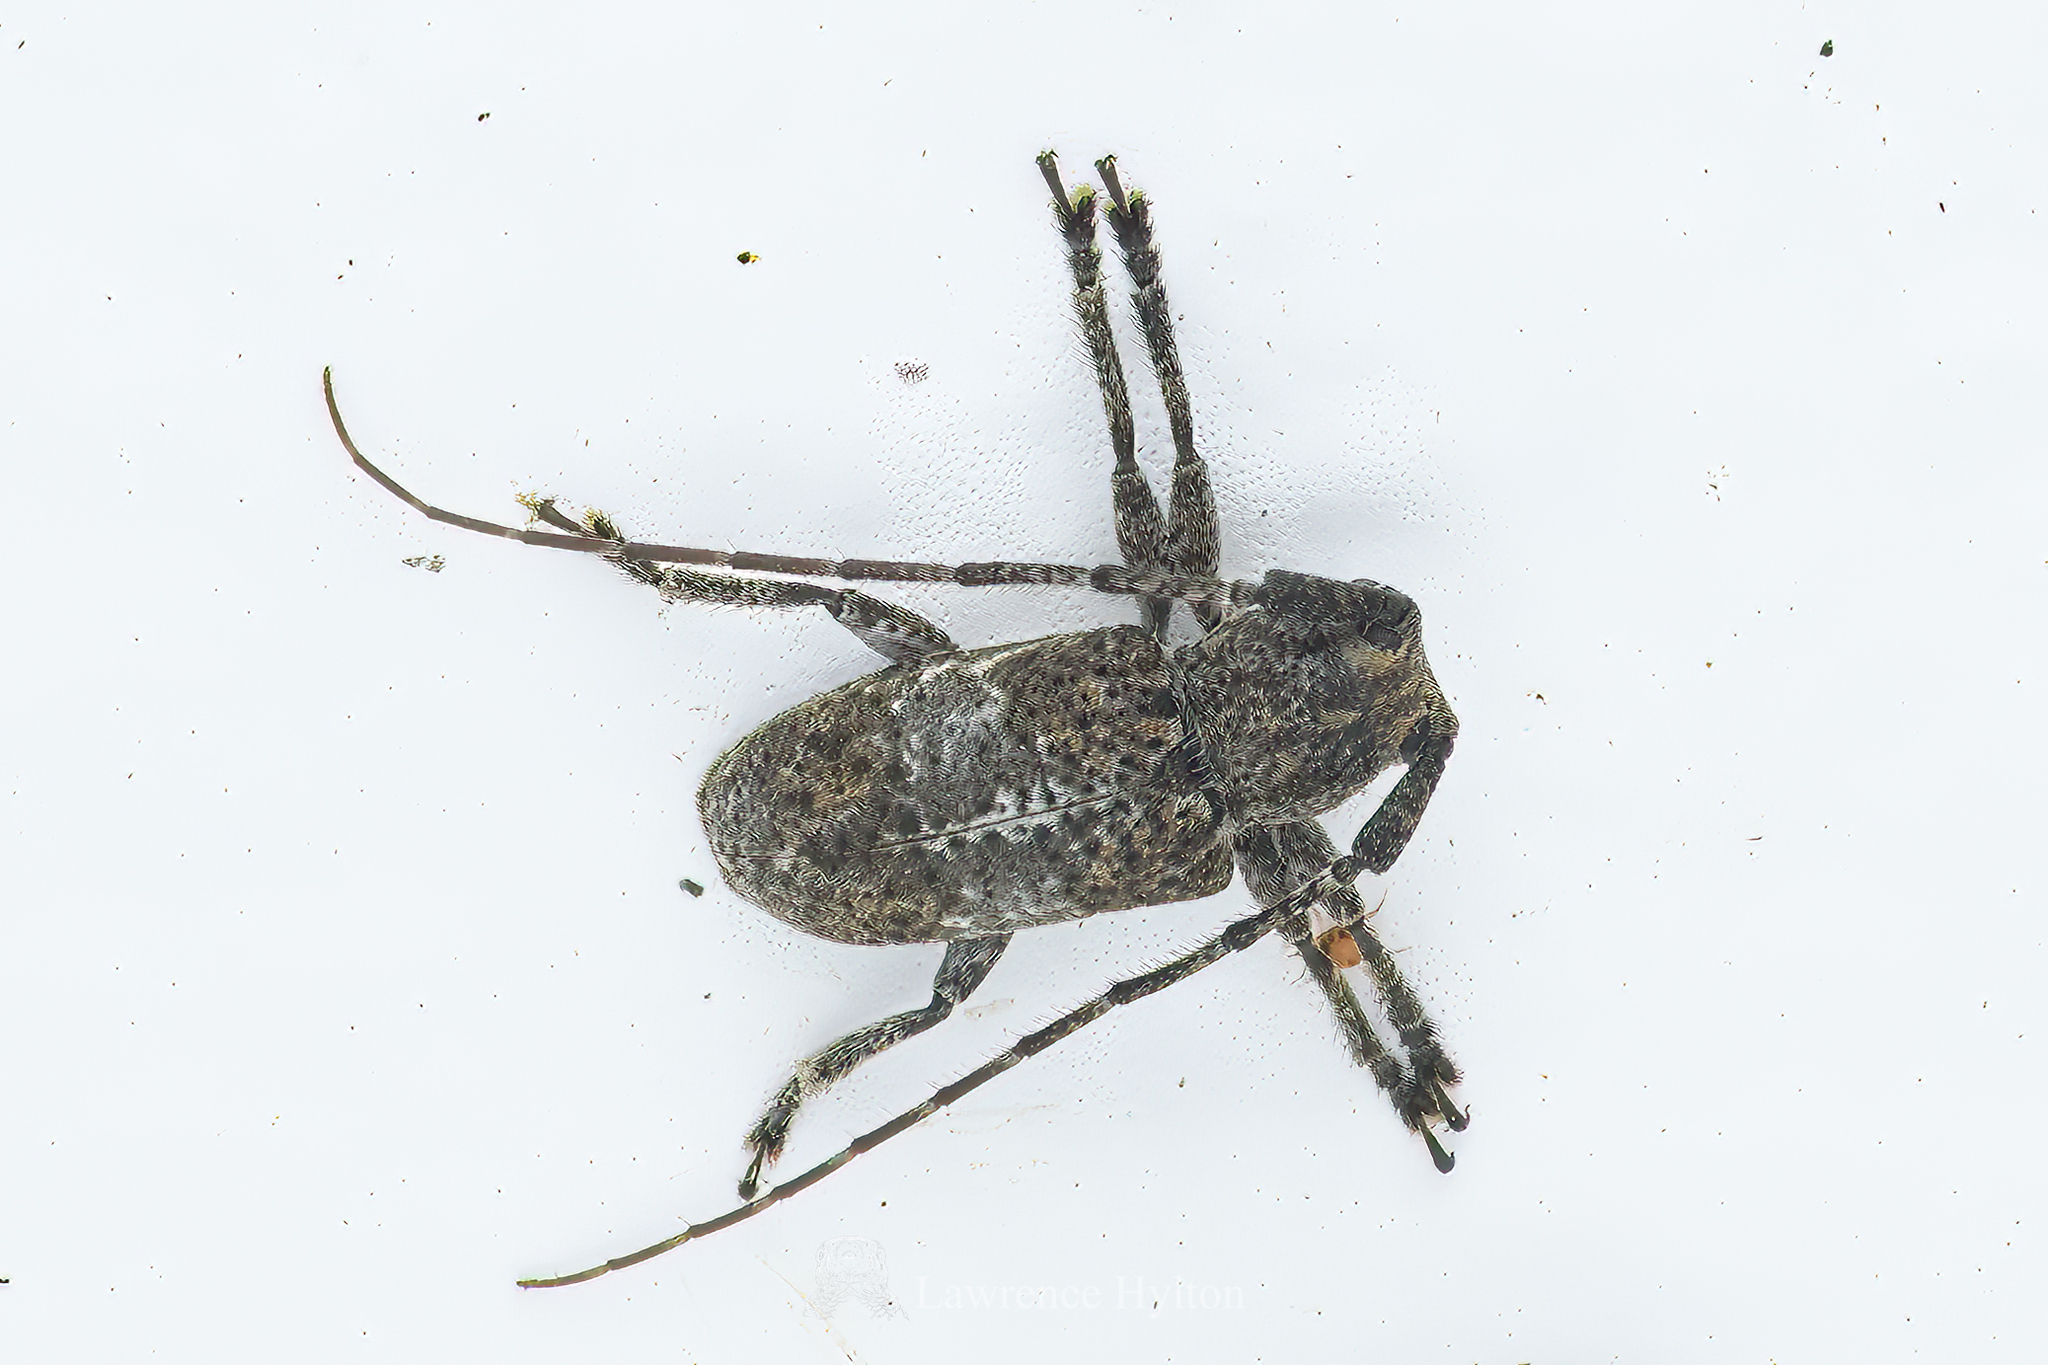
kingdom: Animalia
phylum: Arthropoda
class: Insecta
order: Coleoptera
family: Cerambycidae
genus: Desisa
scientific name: Desisa subfasciata
